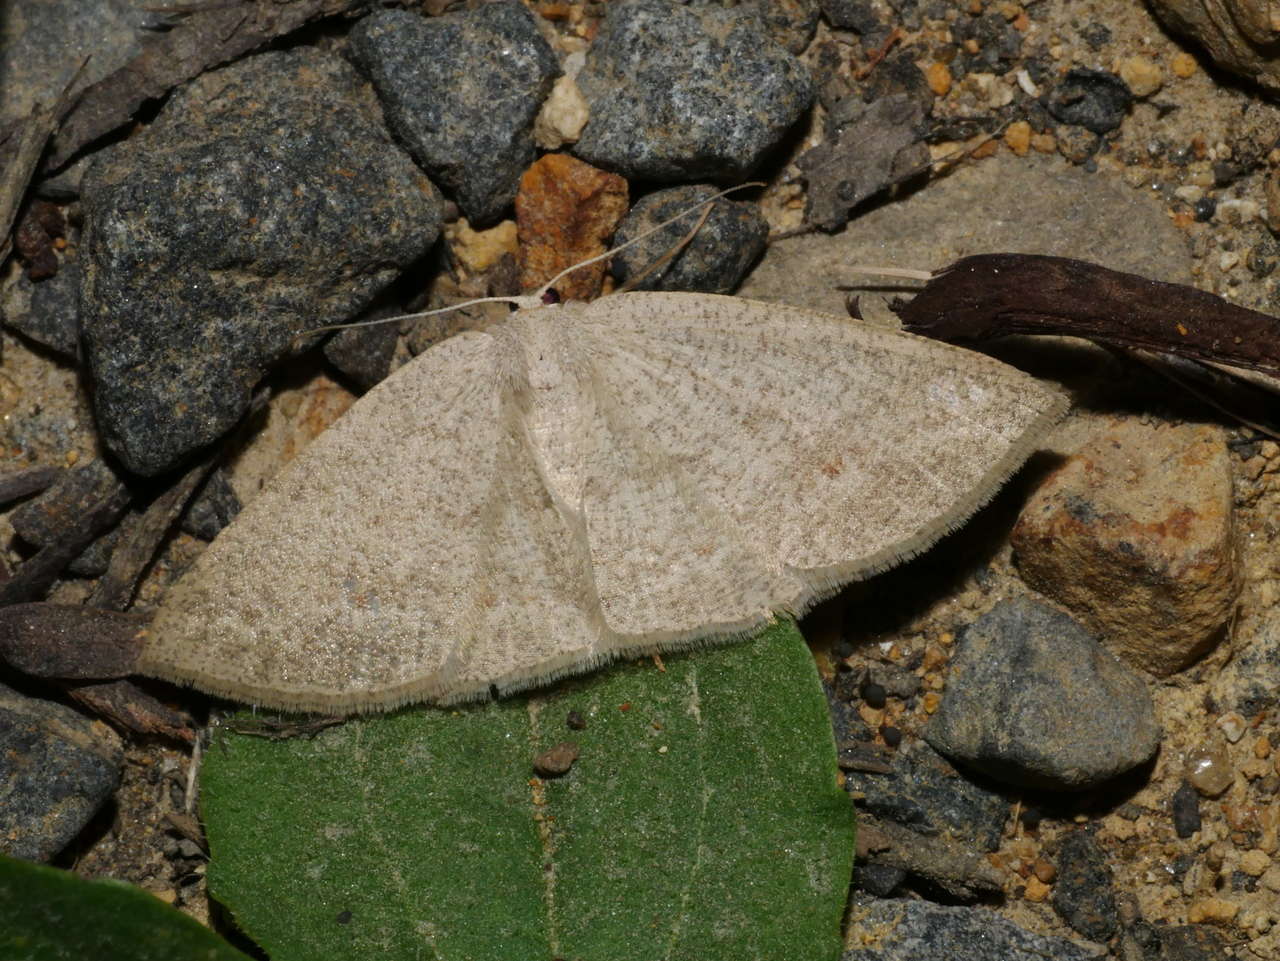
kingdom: Animalia
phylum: Arthropoda
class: Insecta
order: Lepidoptera
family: Geometridae
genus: Casbia
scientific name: Casbia farinalis
